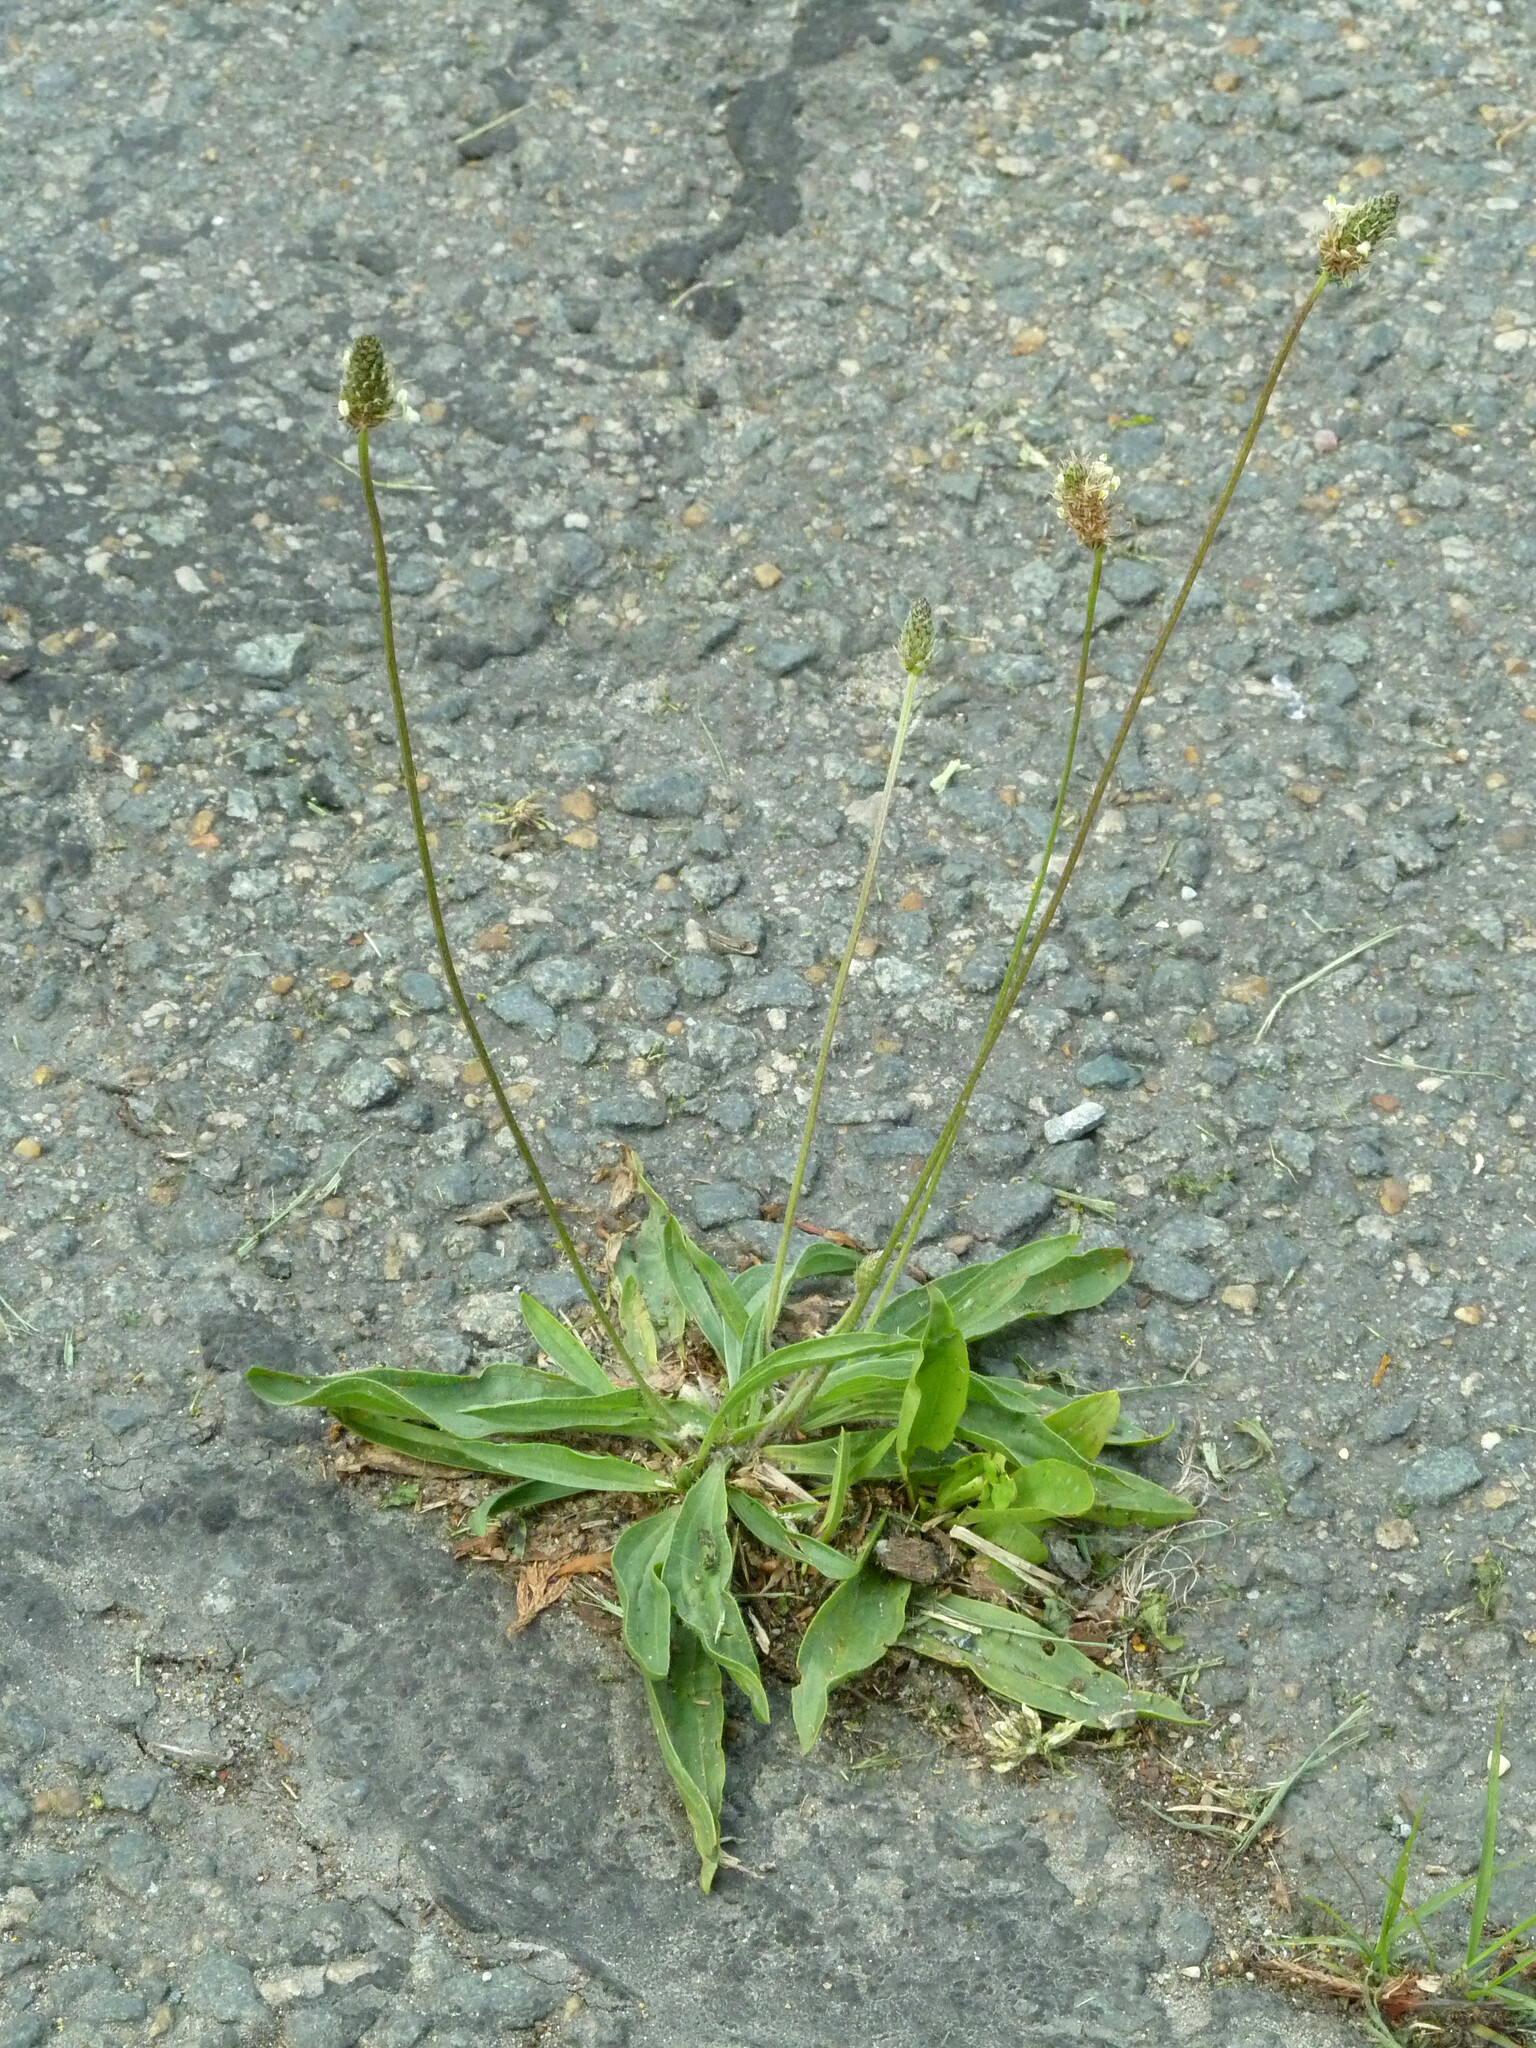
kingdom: Plantae
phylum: Tracheophyta
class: Magnoliopsida
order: Lamiales
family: Plantaginaceae
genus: Plantago
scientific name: Plantago lanceolata
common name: Ribwort plantain
